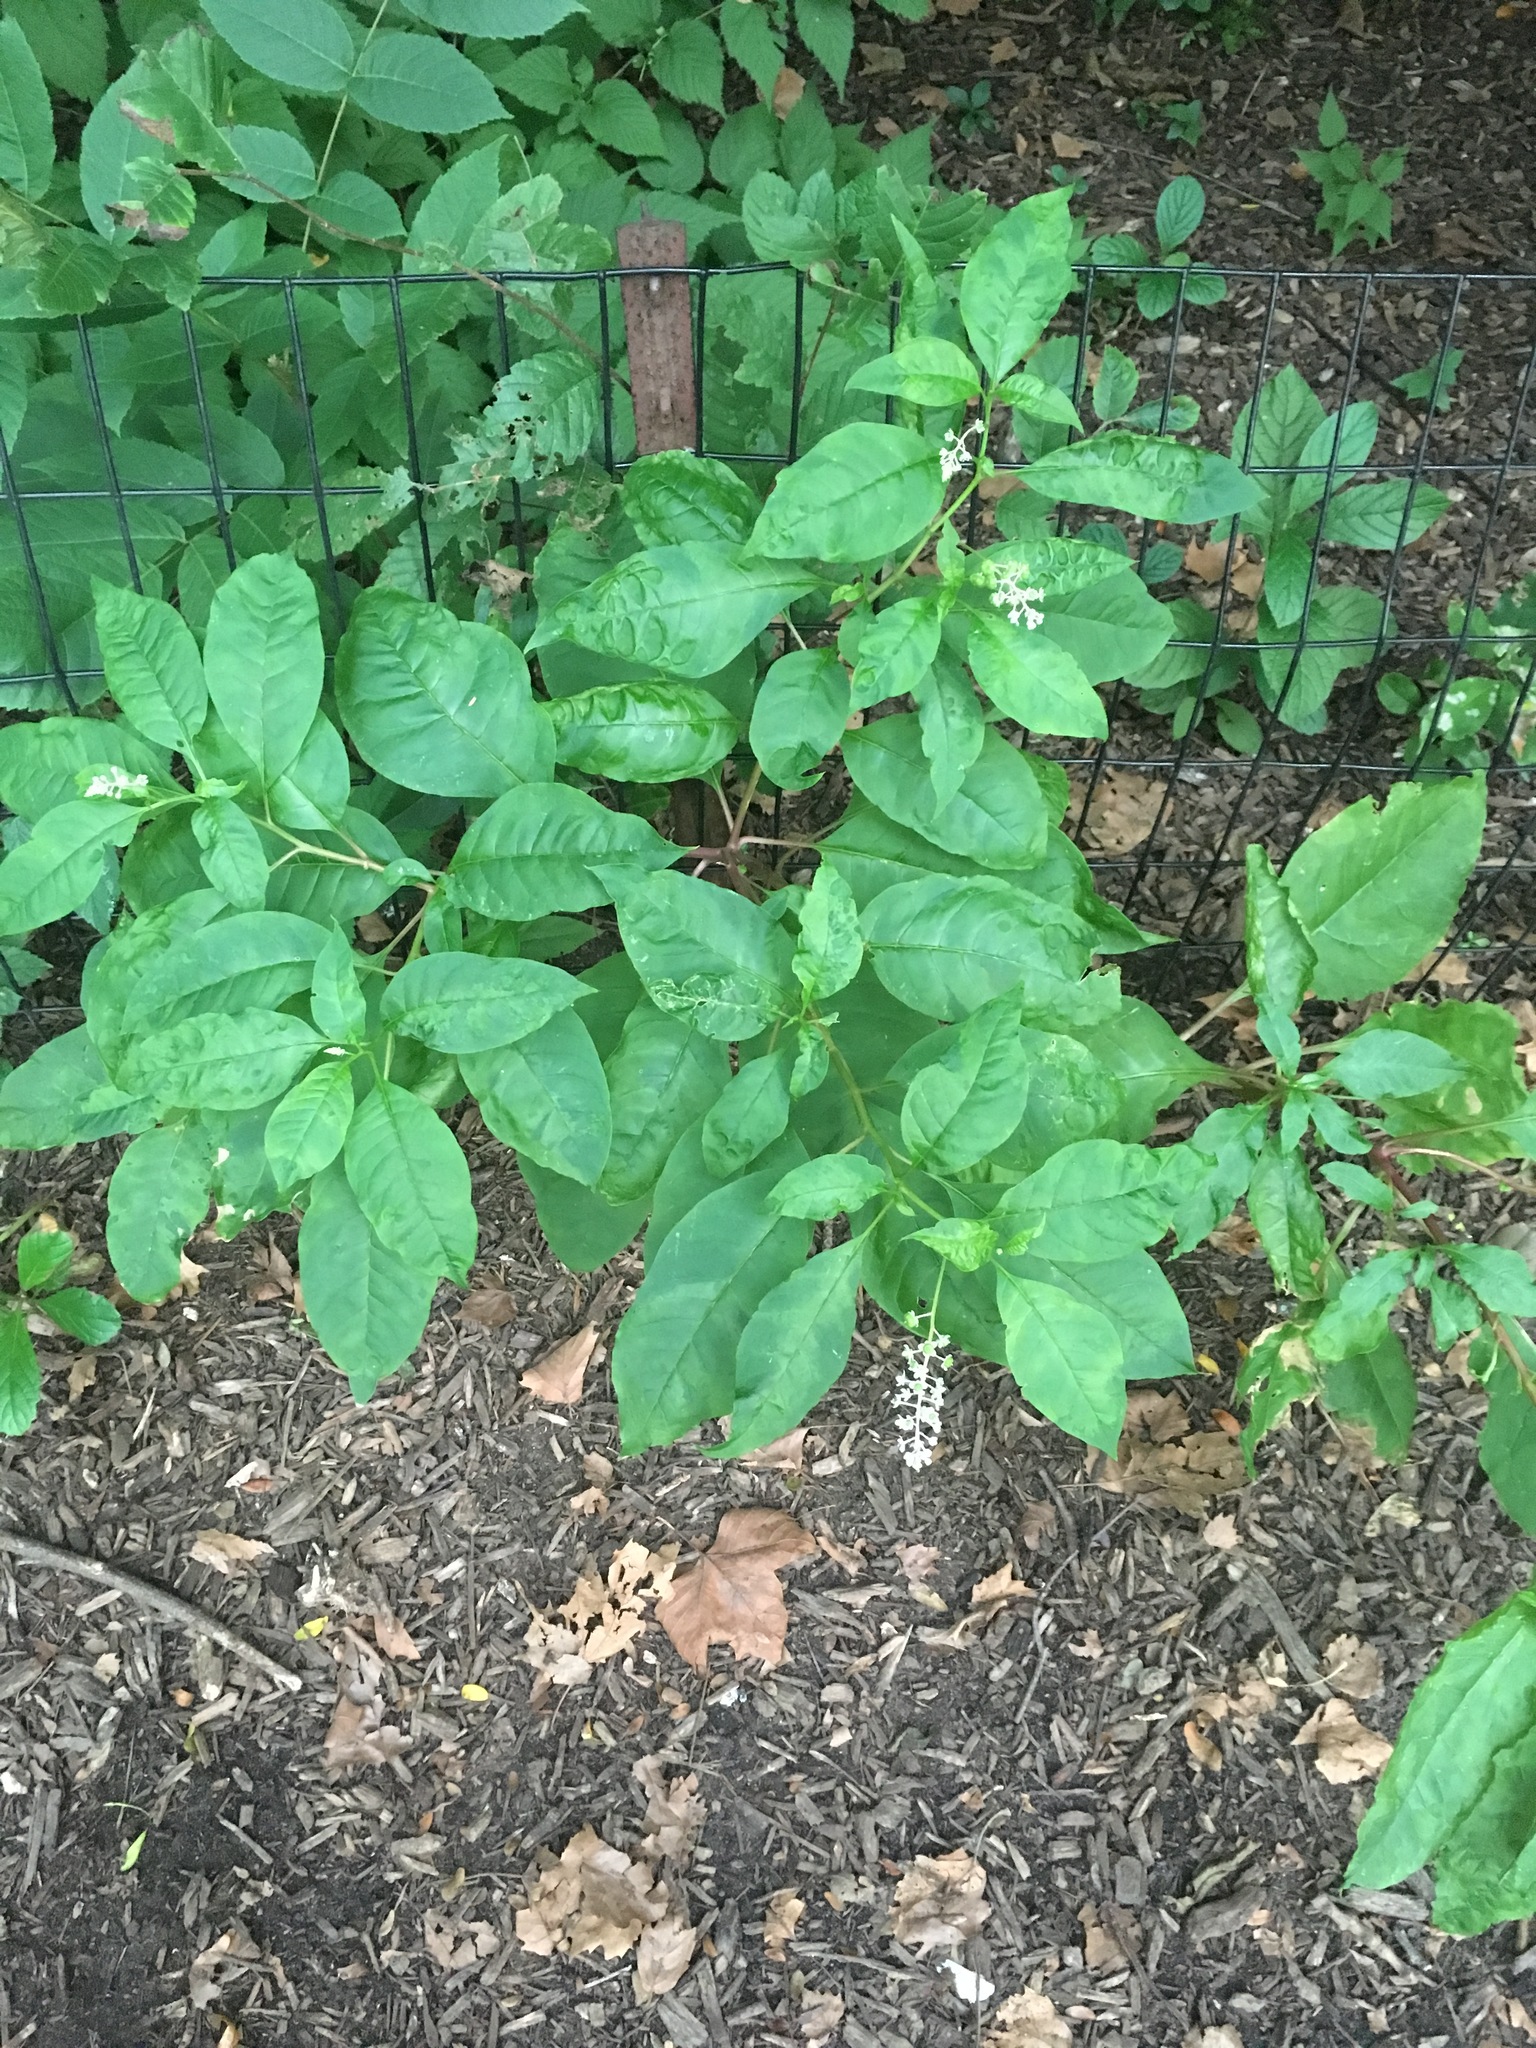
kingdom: Plantae
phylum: Tracheophyta
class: Magnoliopsida
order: Caryophyllales
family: Phytolaccaceae
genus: Phytolacca
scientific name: Phytolacca americana
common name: American pokeweed
